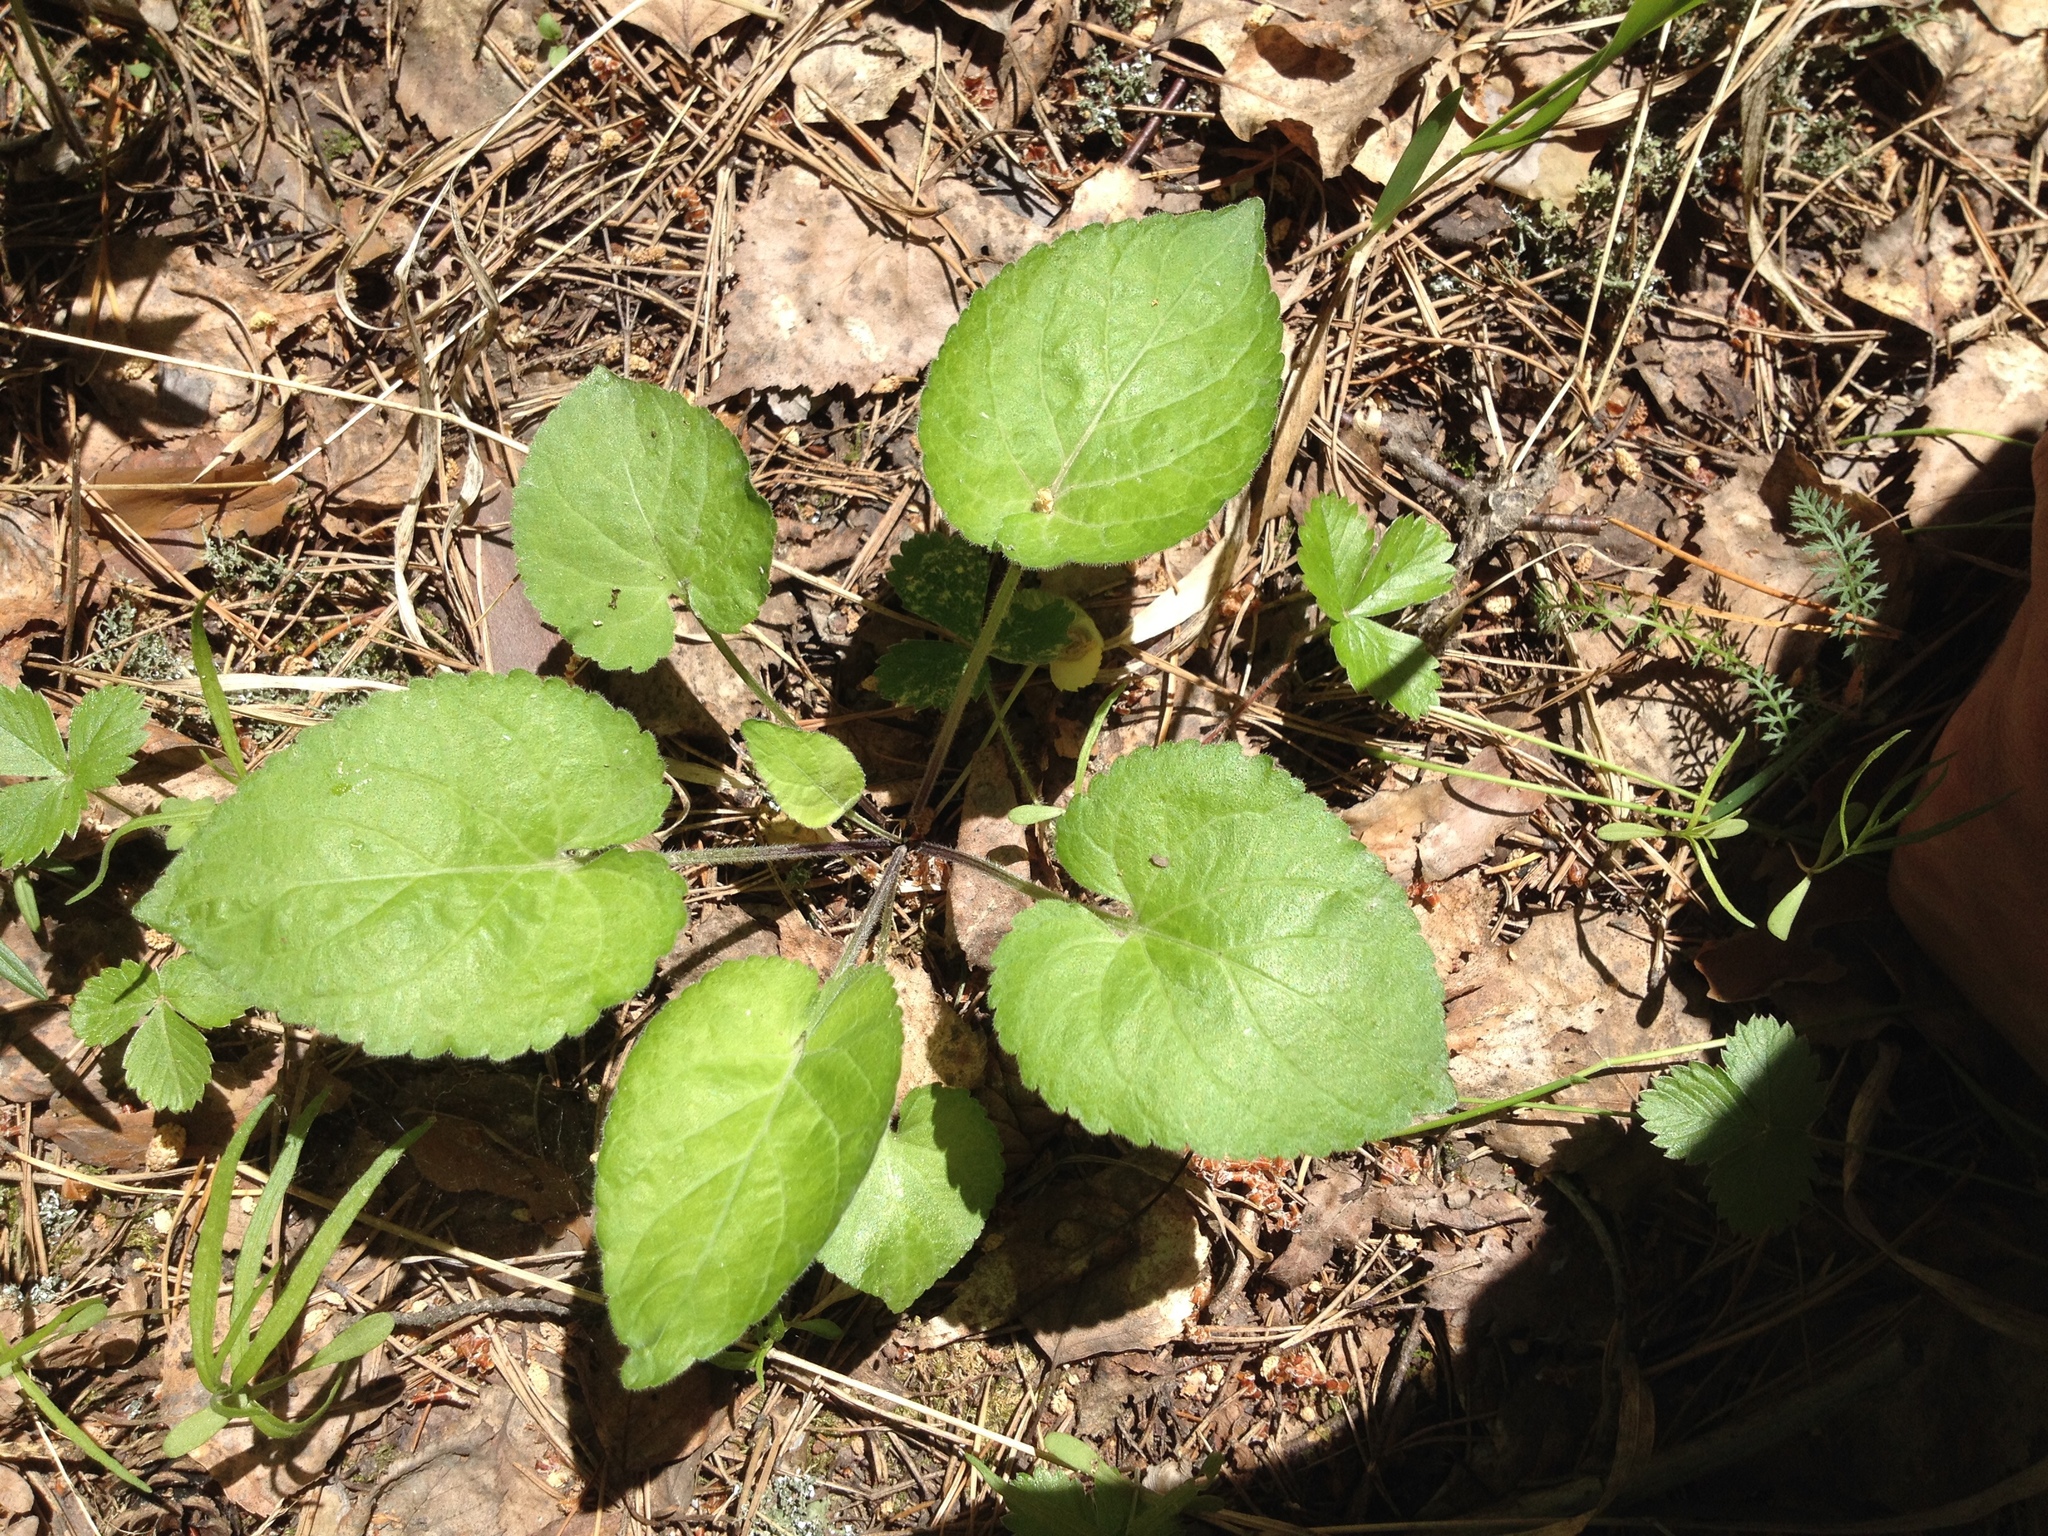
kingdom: Plantae
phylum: Tracheophyta
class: Magnoliopsida
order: Malpighiales
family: Violaceae
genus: Viola
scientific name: Viola collina
